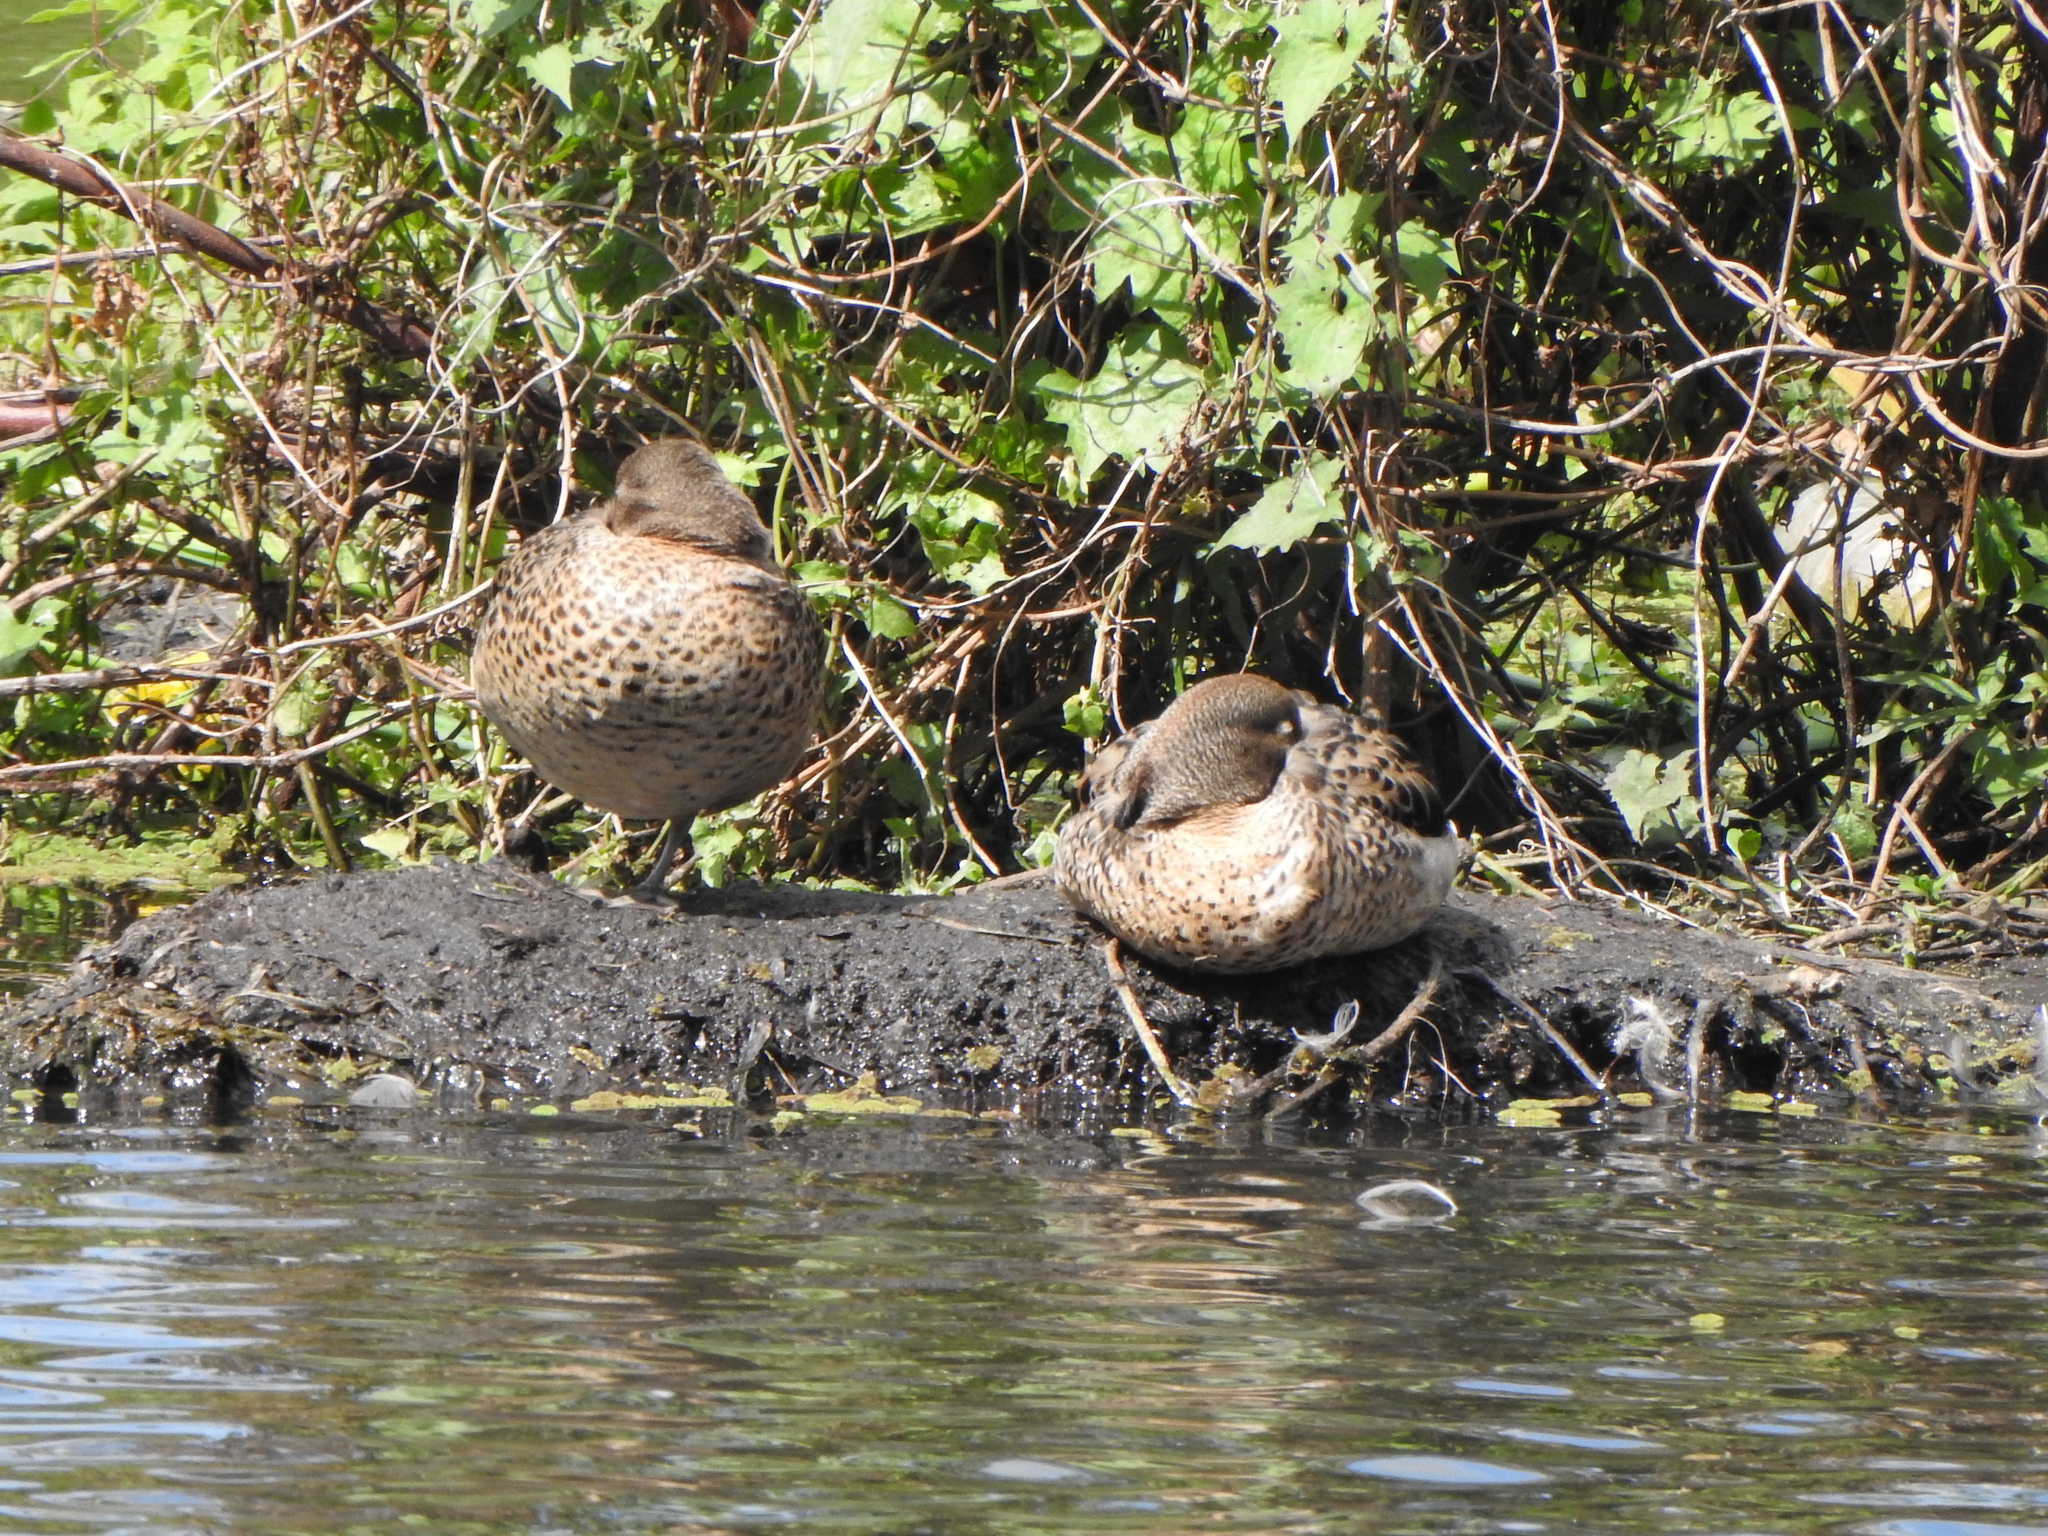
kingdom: Animalia
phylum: Chordata
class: Aves
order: Anseriformes
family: Anatidae
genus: Anas
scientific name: Anas flavirostris
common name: Yellow-billed teal
